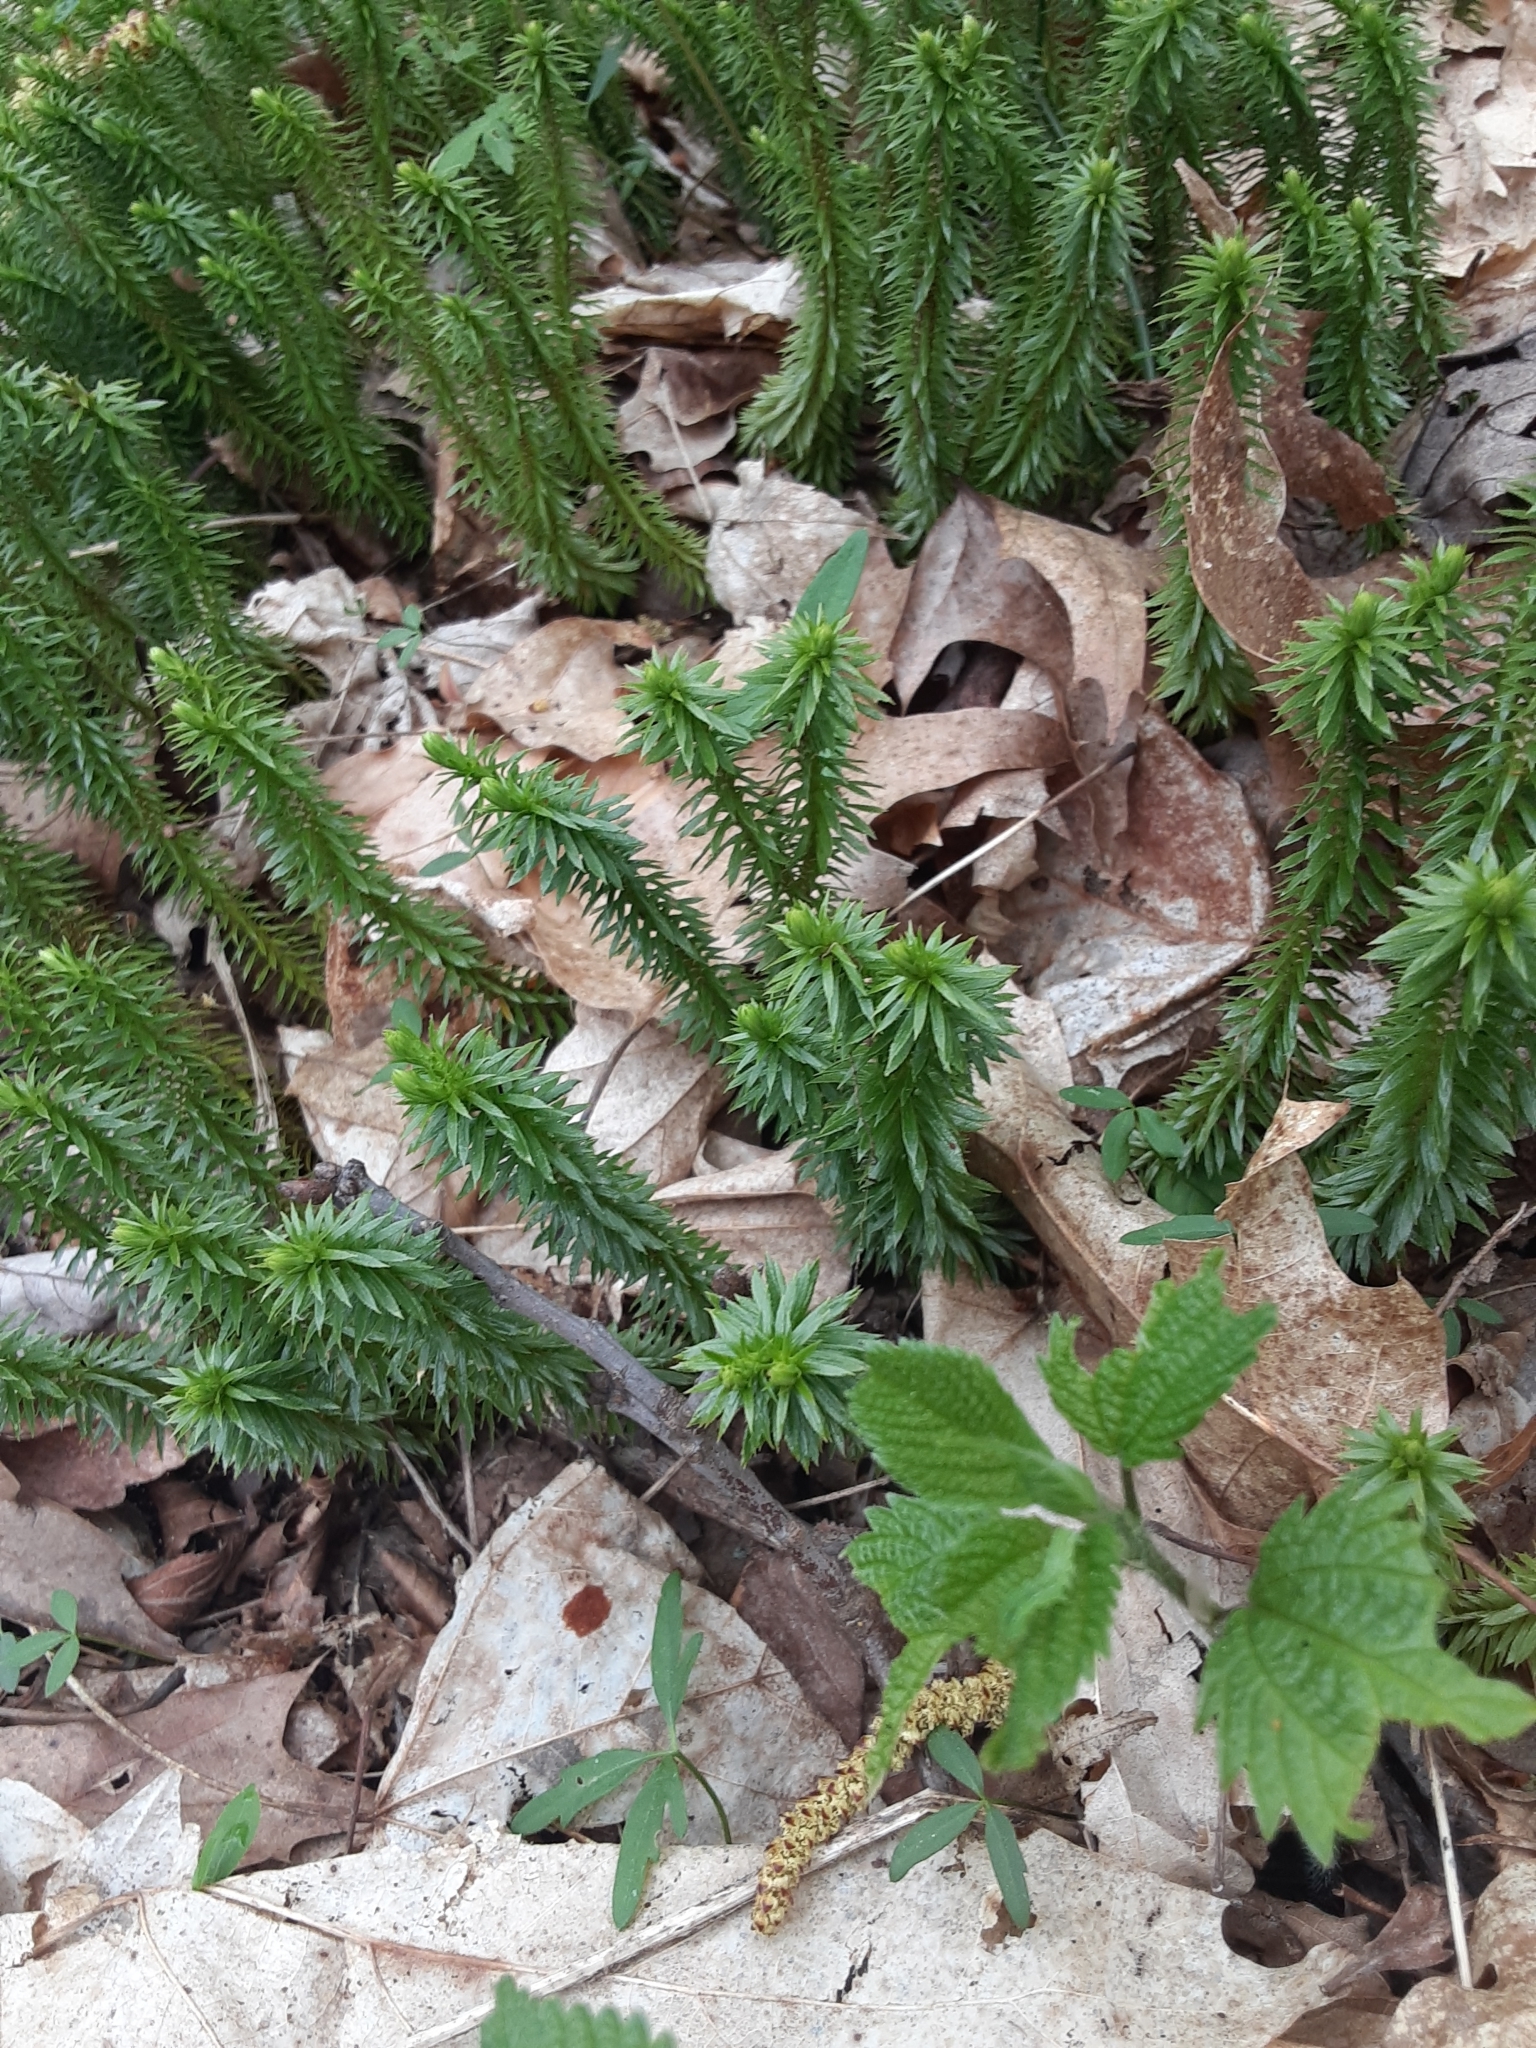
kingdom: Plantae
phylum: Tracheophyta
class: Lycopodiopsida
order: Lycopodiales
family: Lycopodiaceae
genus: Huperzia
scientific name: Huperzia lucidula
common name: Shining clubmoss
